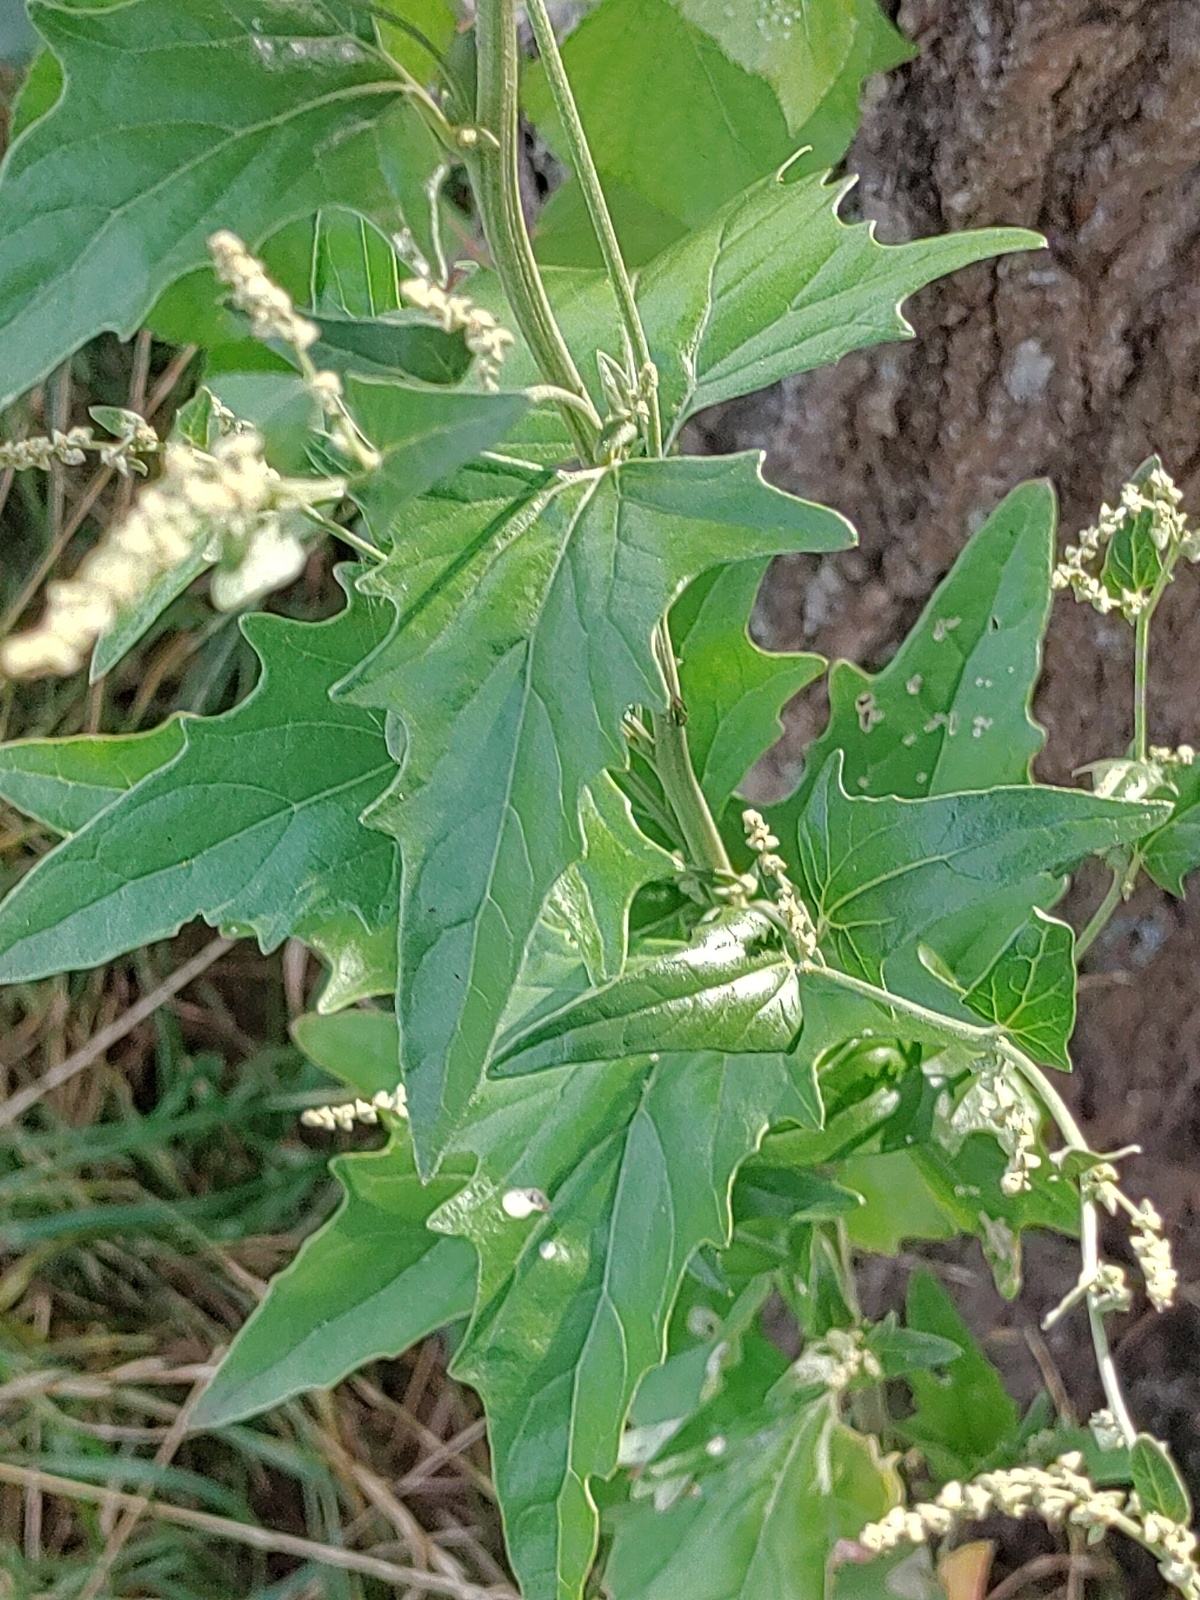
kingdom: Plantae
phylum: Tracheophyta
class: Magnoliopsida
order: Caryophyllales
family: Amaranthaceae
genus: Atriplex
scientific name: Atriplex sagittata
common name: Purple orache
